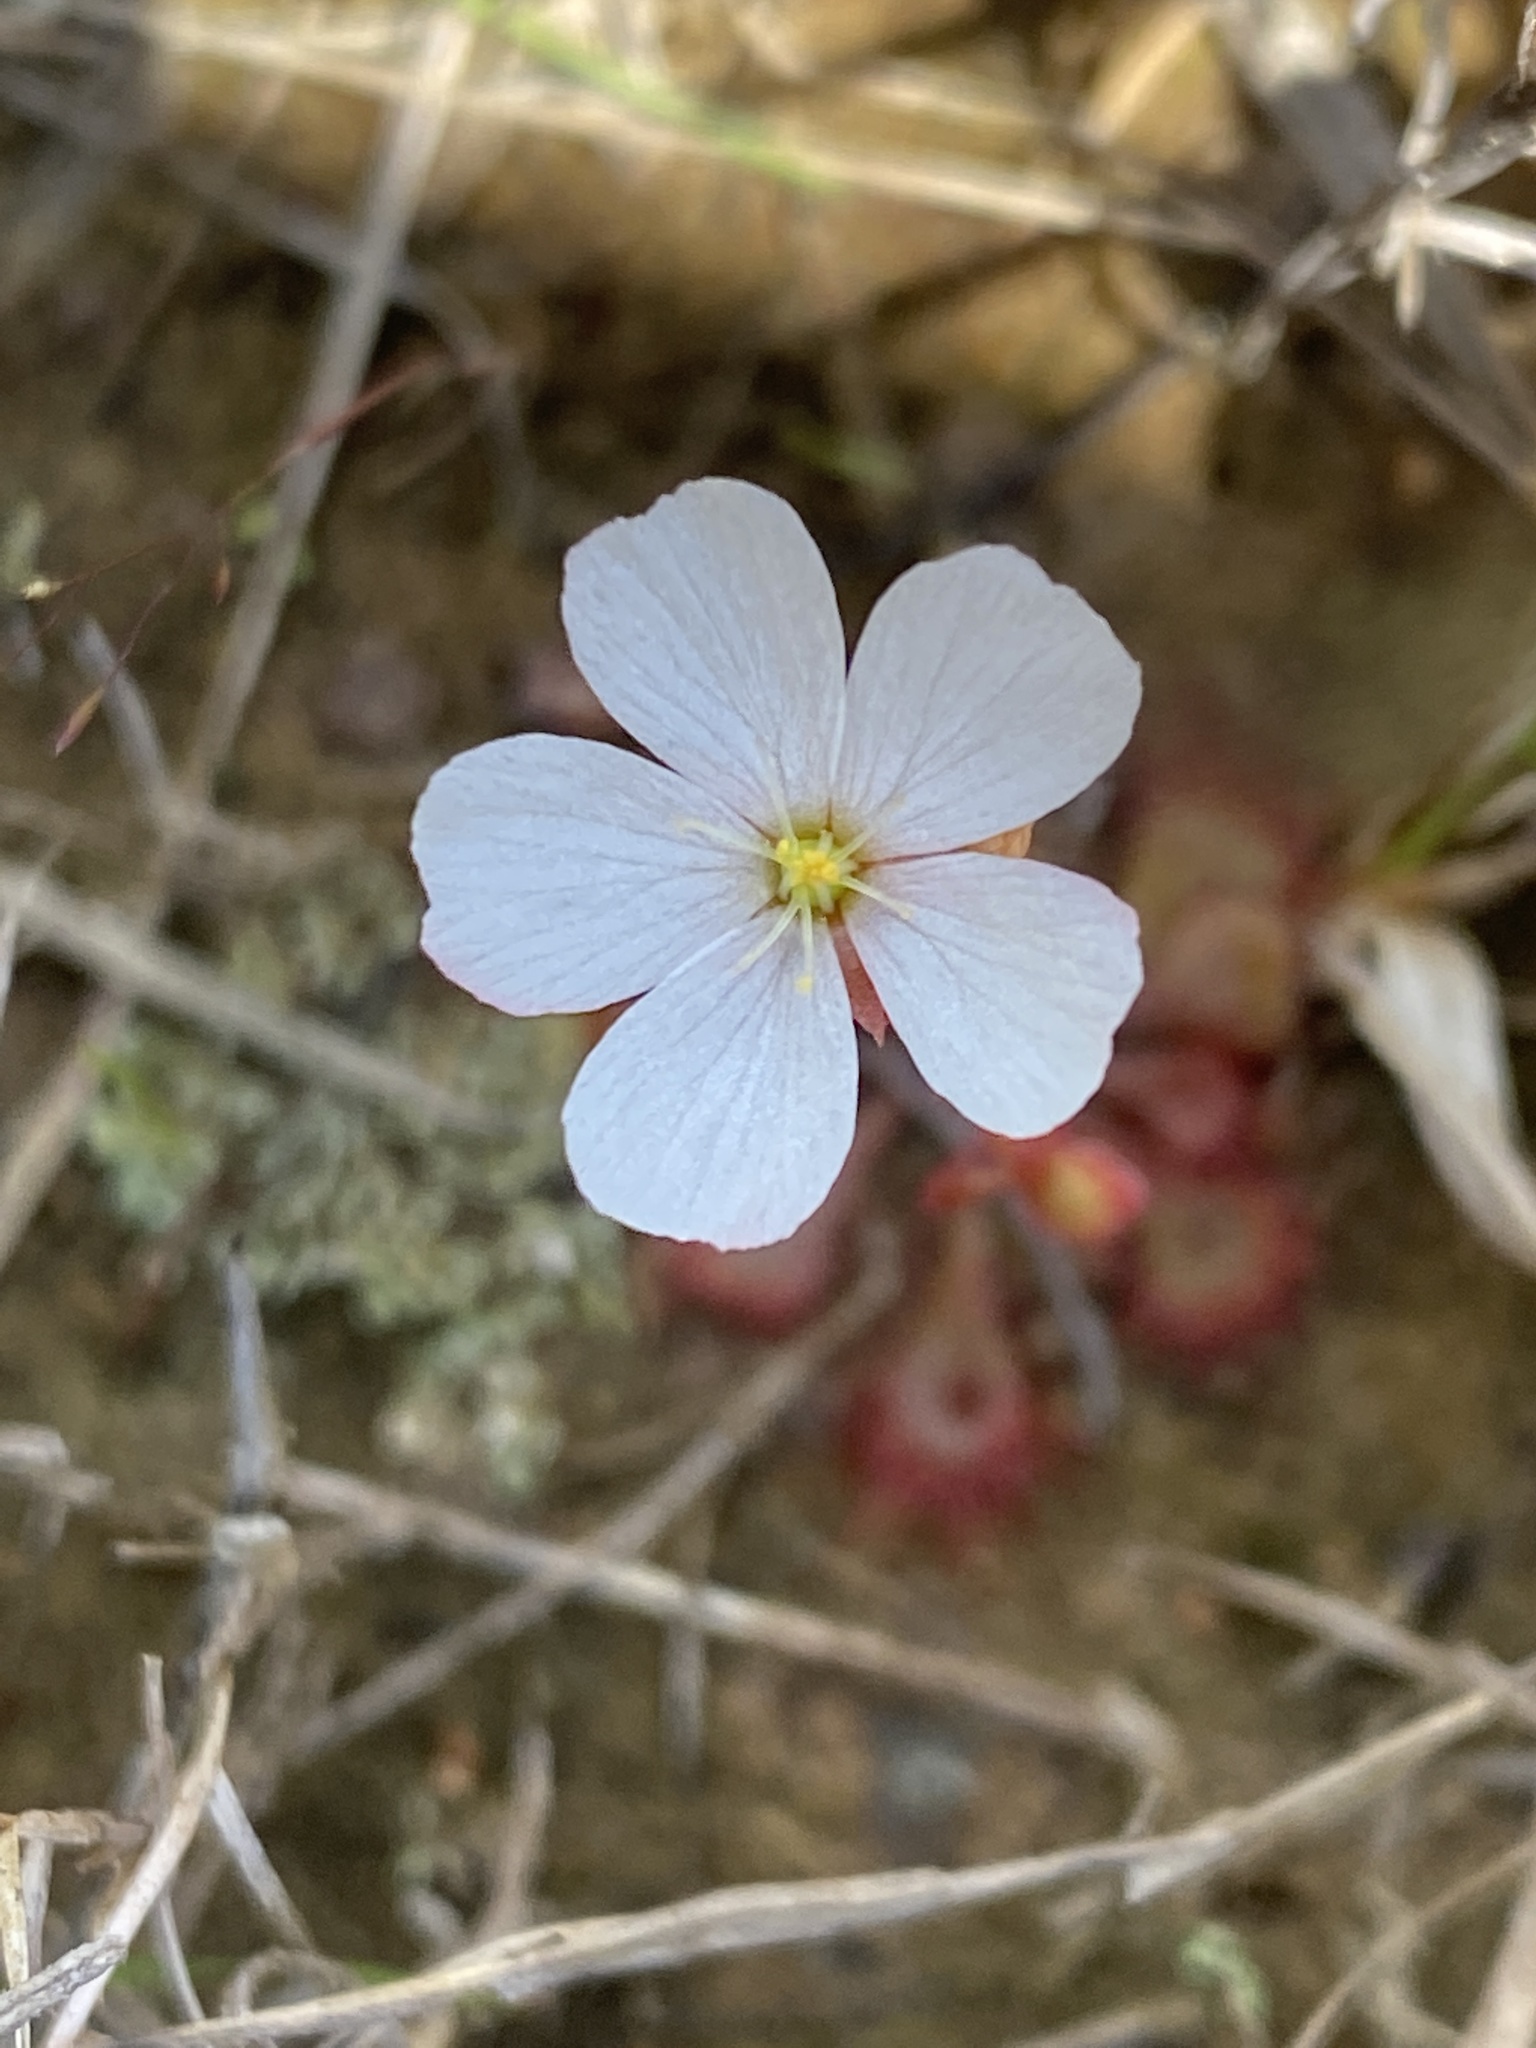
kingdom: Plantae
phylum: Tracheophyta
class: Magnoliopsida
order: Caryophyllales
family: Droseraceae
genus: Drosera
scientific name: Drosera brevifolia
